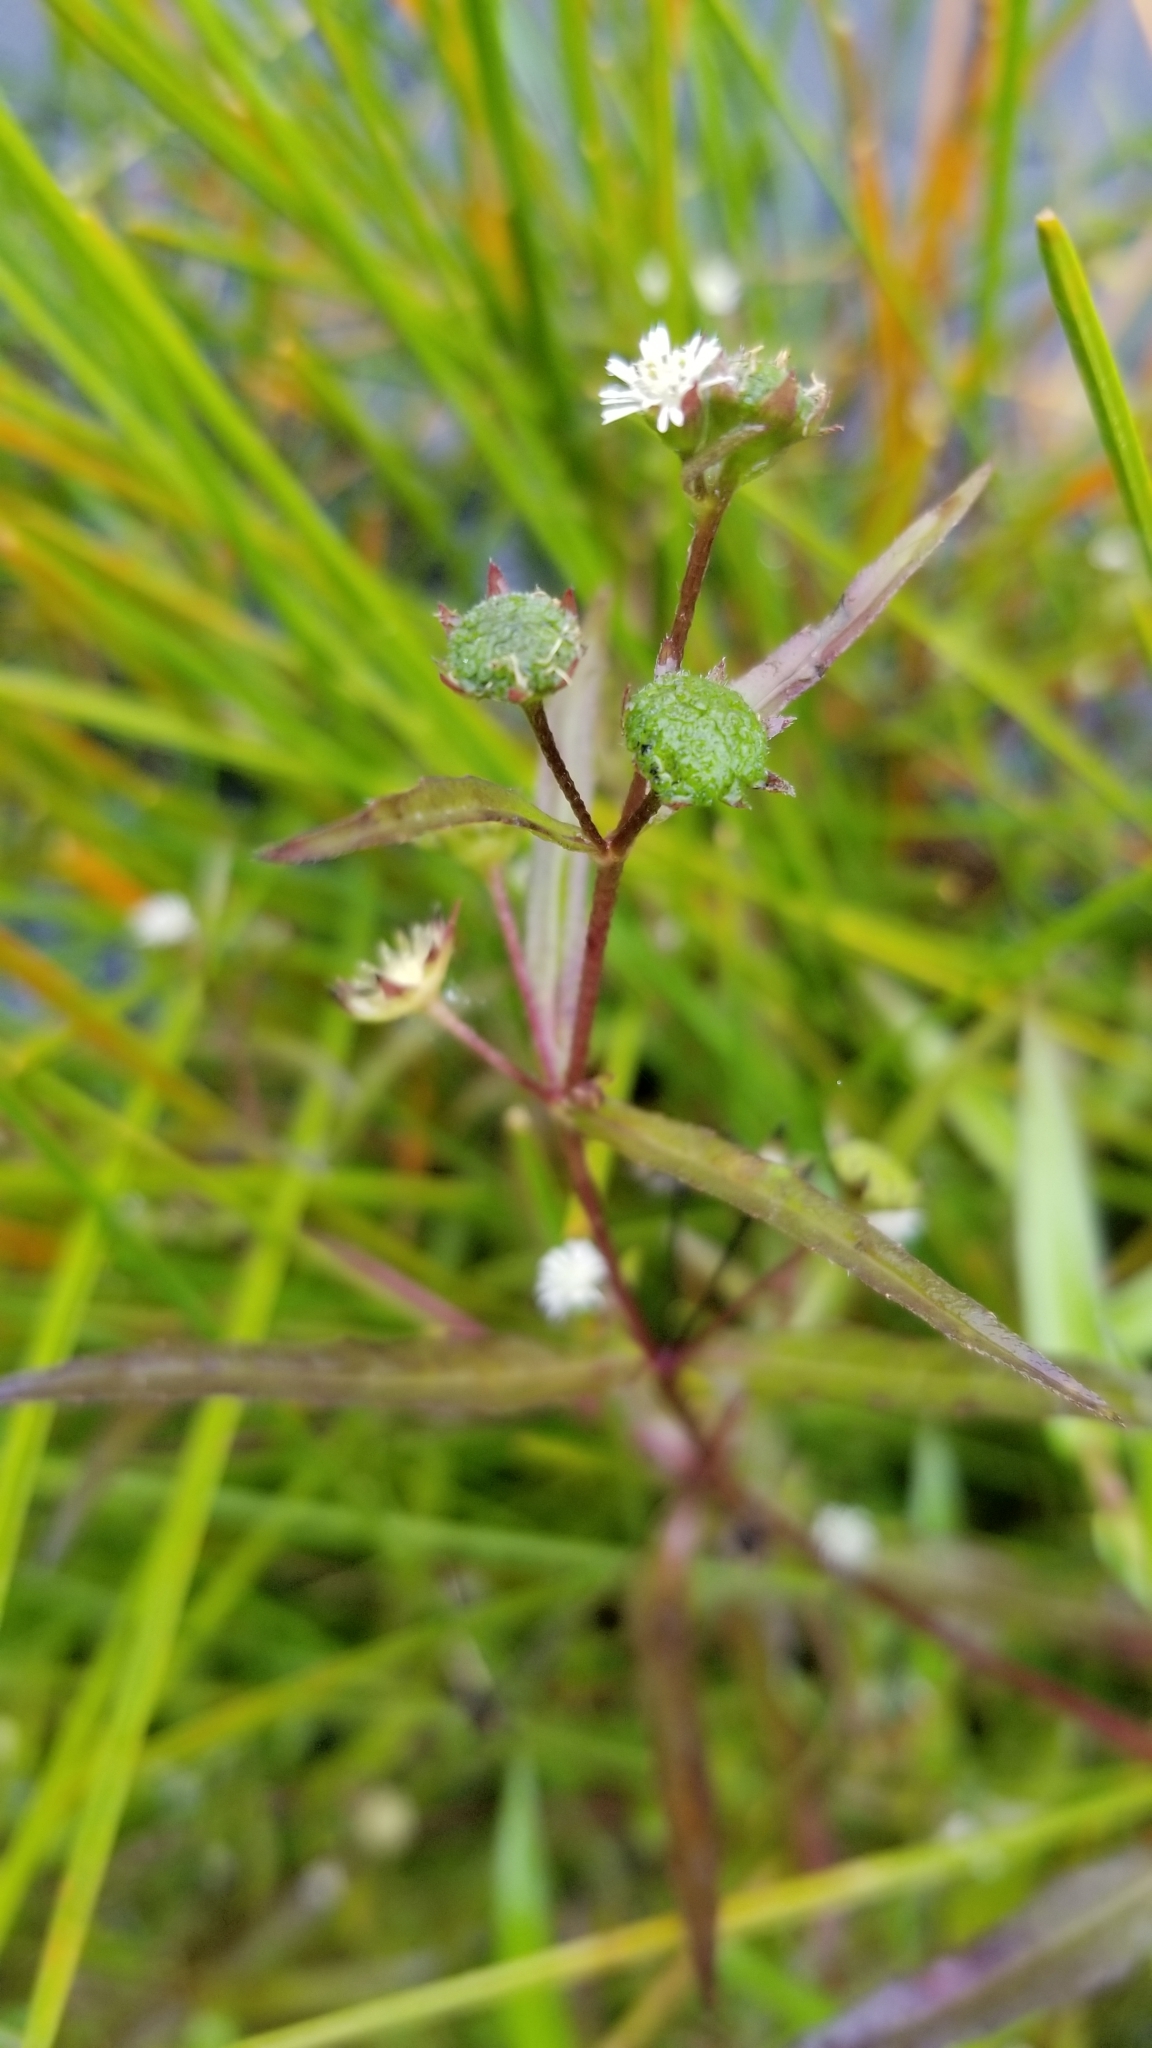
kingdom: Plantae
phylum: Tracheophyta
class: Magnoliopsida
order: Asterales
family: Asteraceae
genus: Eclipta
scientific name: Eclipta prostrata
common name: False daisy
